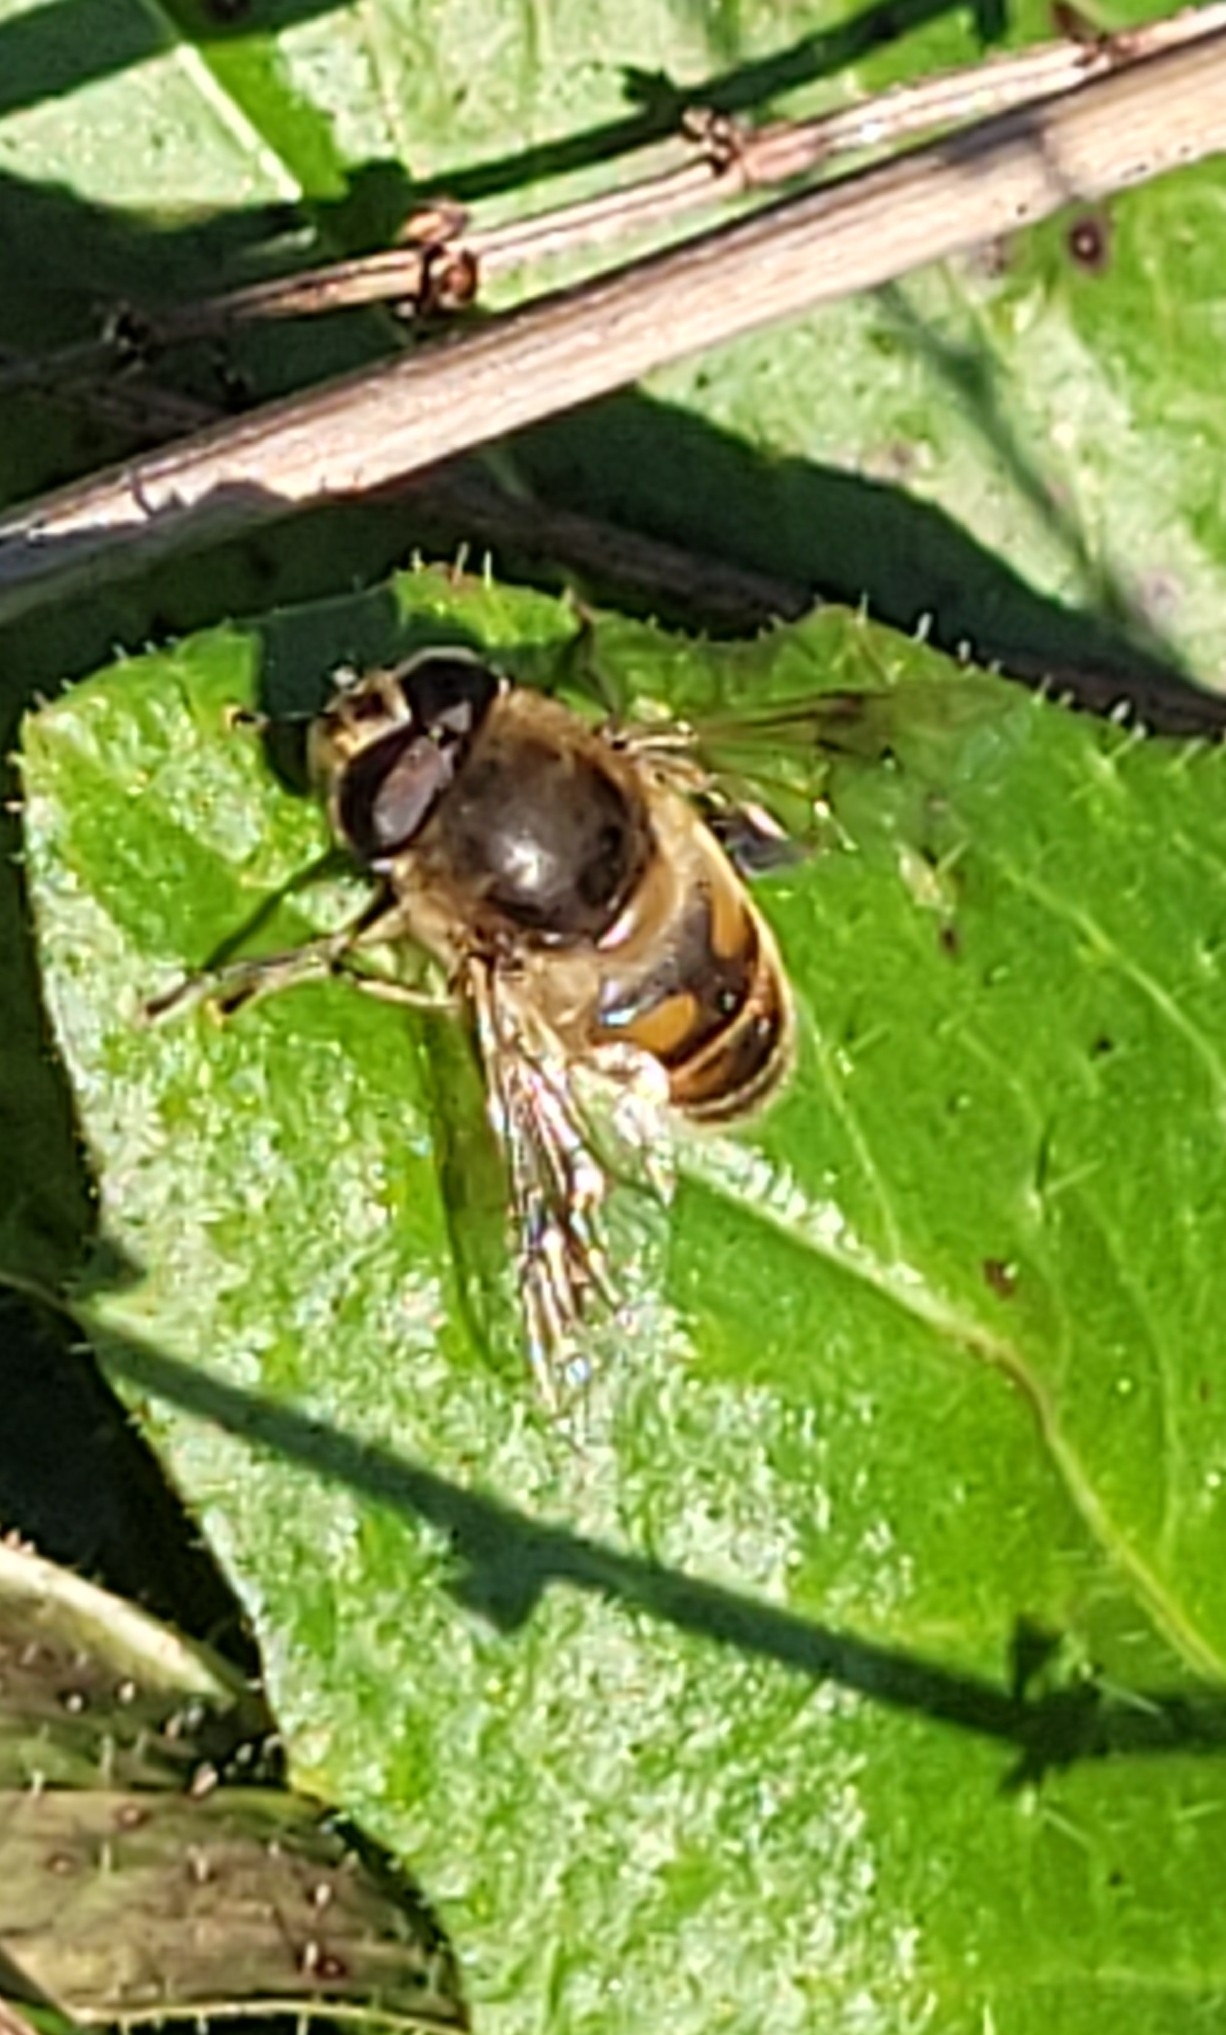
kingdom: Animalia
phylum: Arthropoda
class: Insecta
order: Diptera
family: Syrphidae
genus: Eristalis
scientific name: Eristalis tenax
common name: Drone fly
